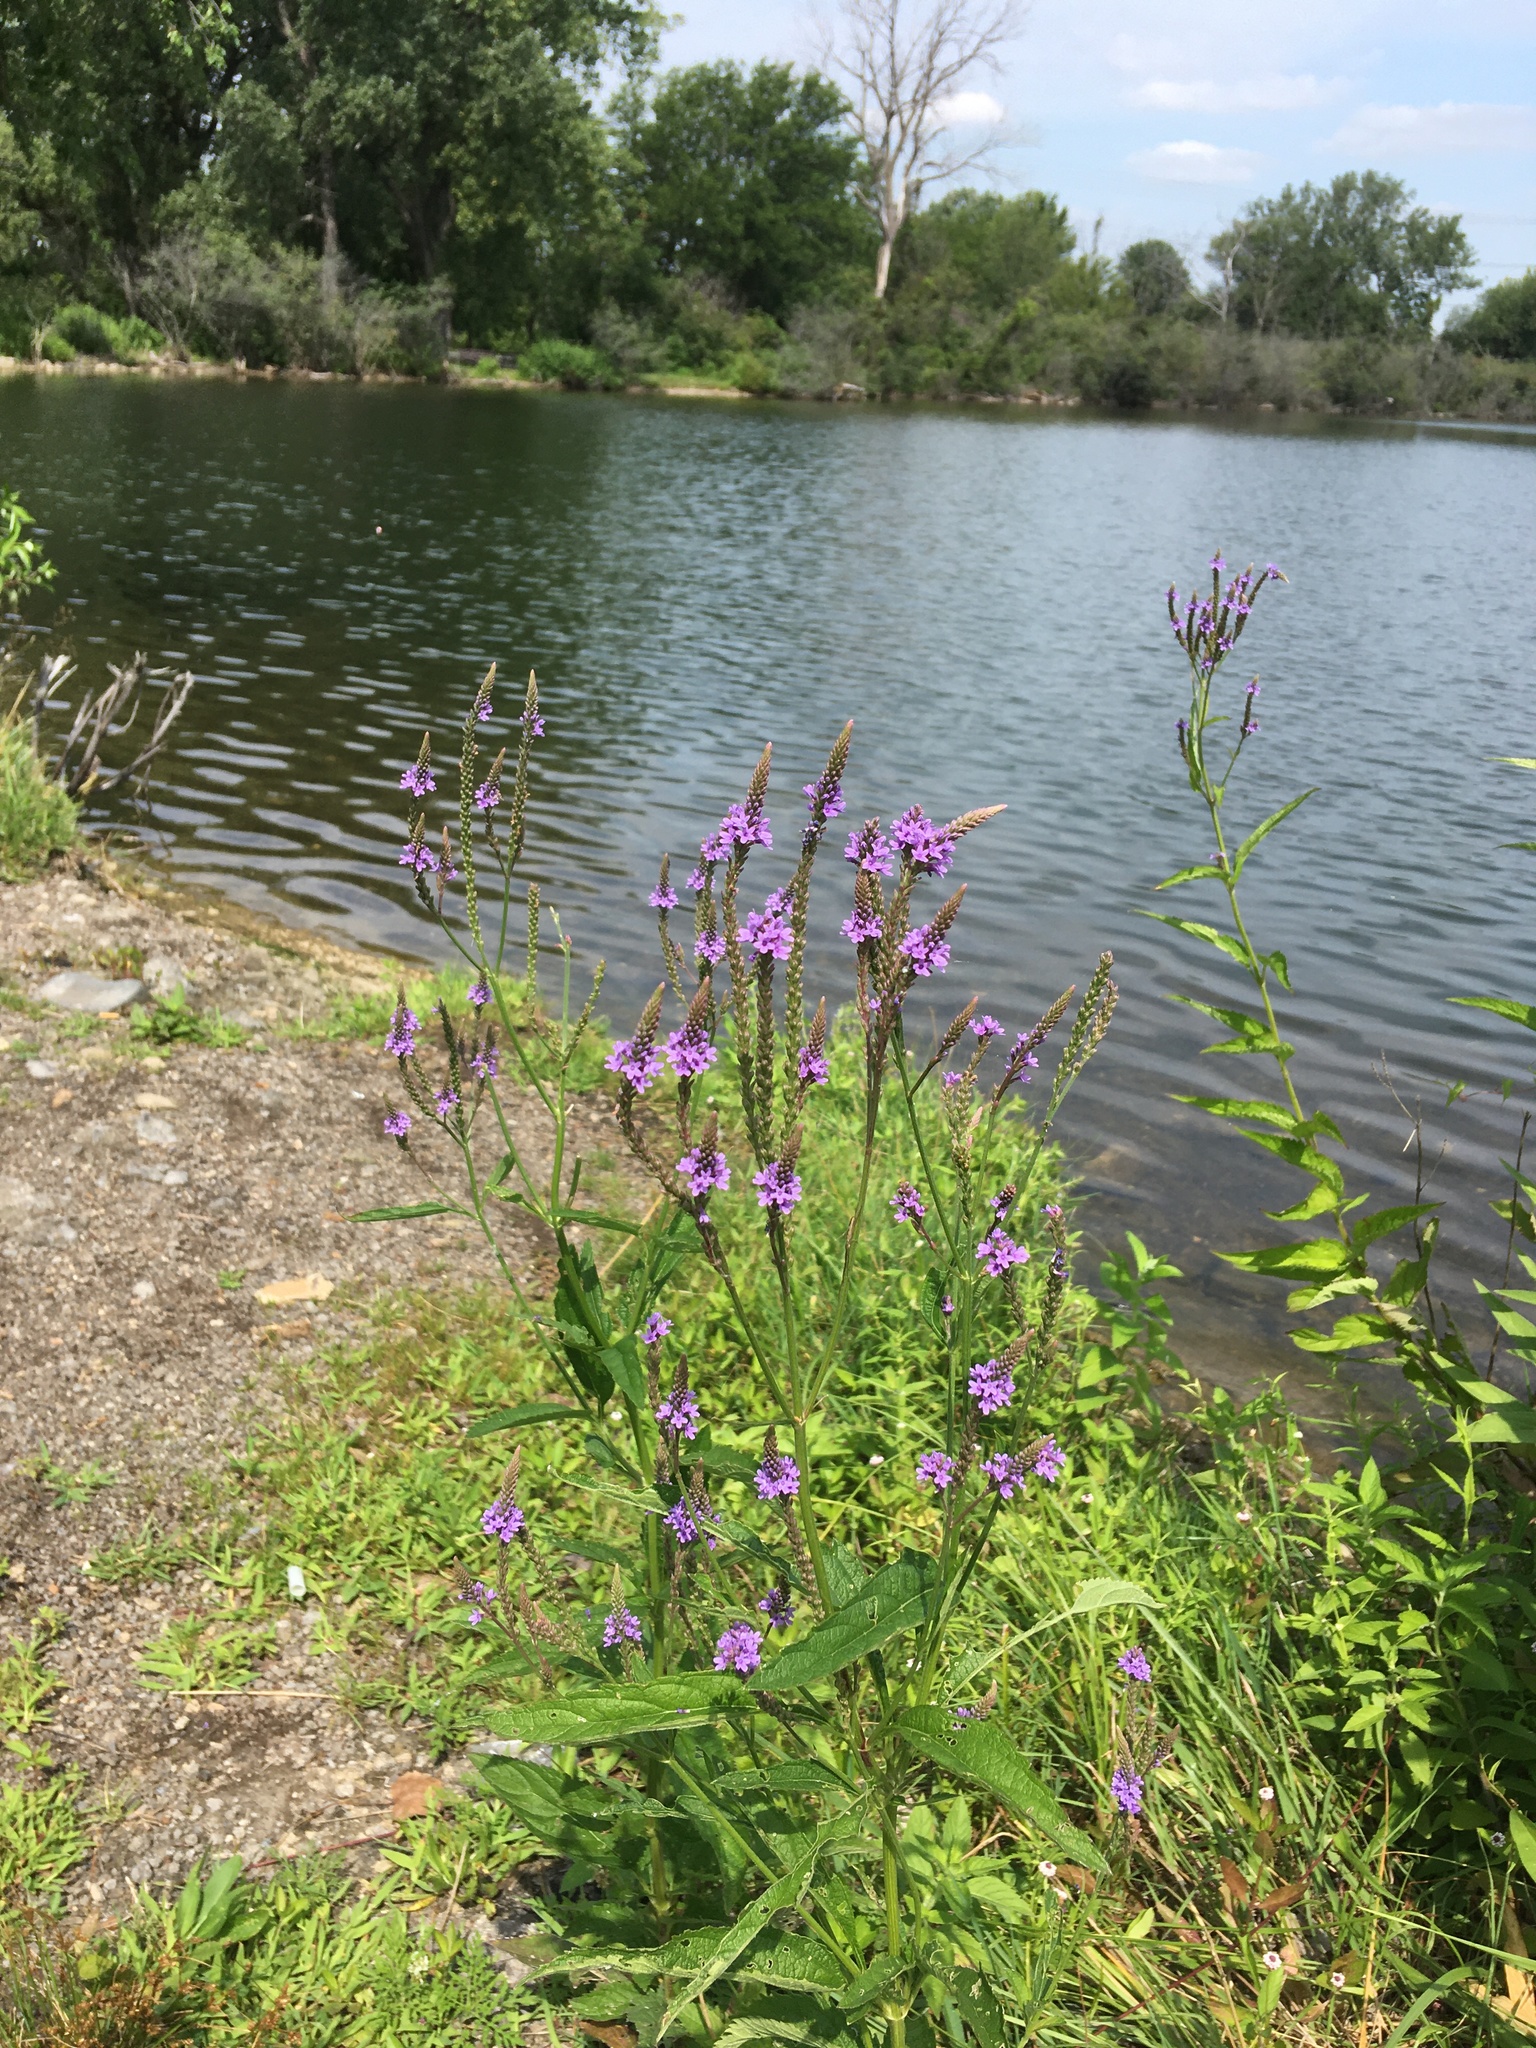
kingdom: Plantae
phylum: Tracheophyta
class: Magnoliopsida
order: Lamiales
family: Verbenaceae
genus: Verbena
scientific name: Verbena hastata
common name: American blue vervain
